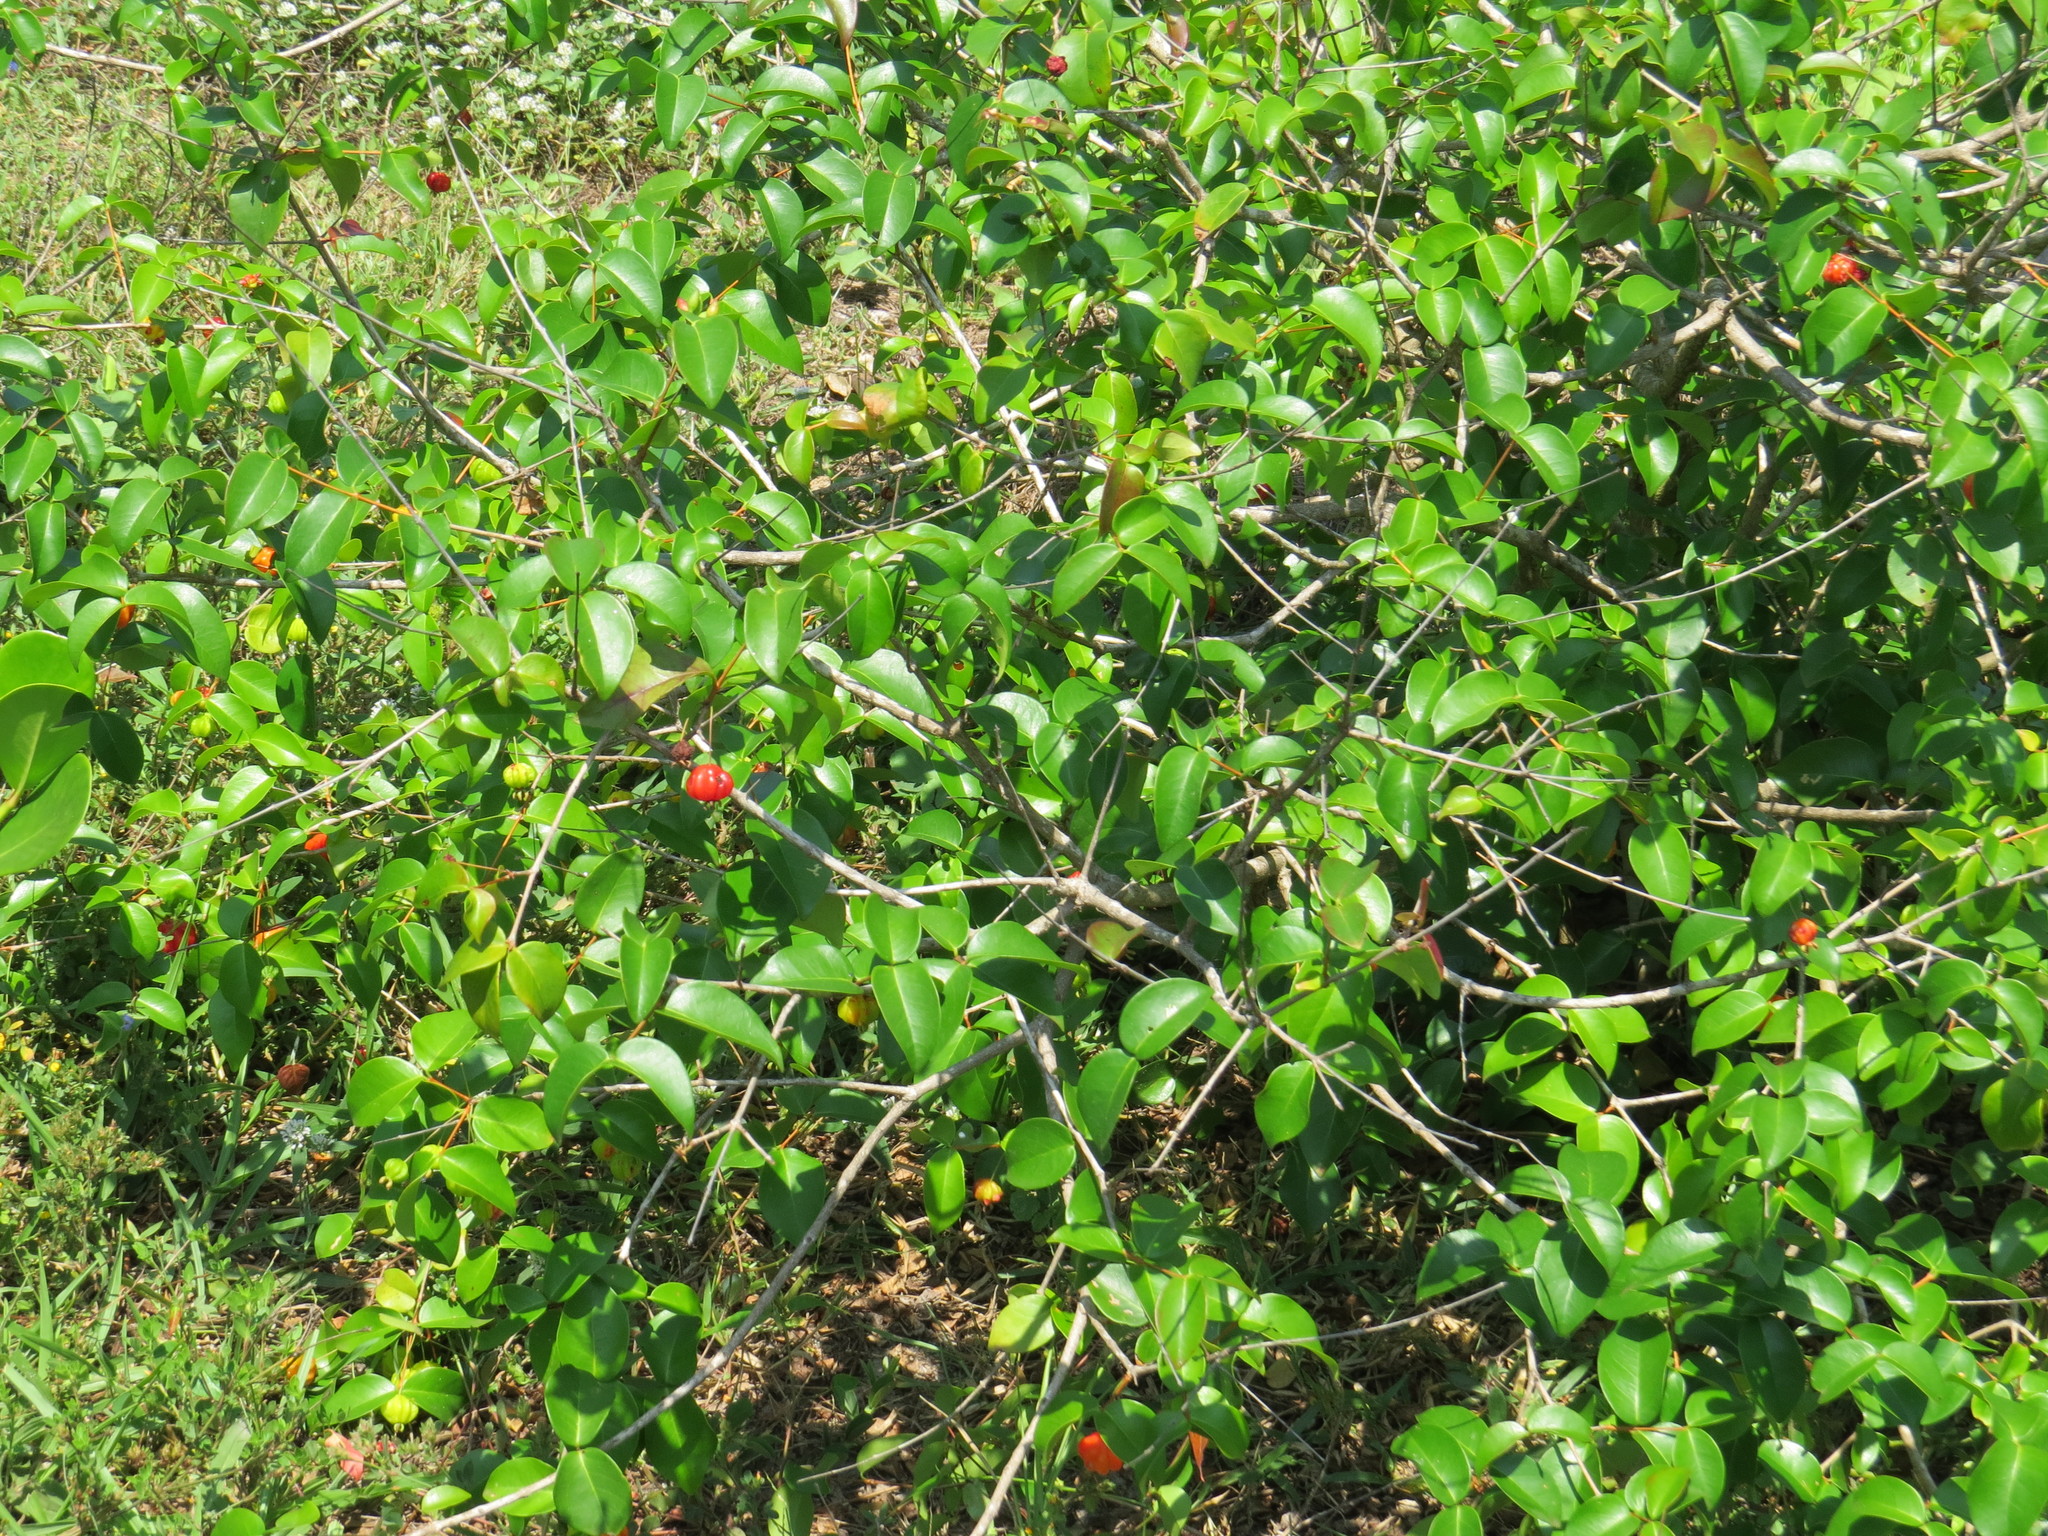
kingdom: Plantae
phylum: Tracheophyta
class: Magnoliopsida
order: Myrtales
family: Myrtaceae
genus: Eugenia
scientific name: Eugenia uniflora
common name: Surinam cherry
